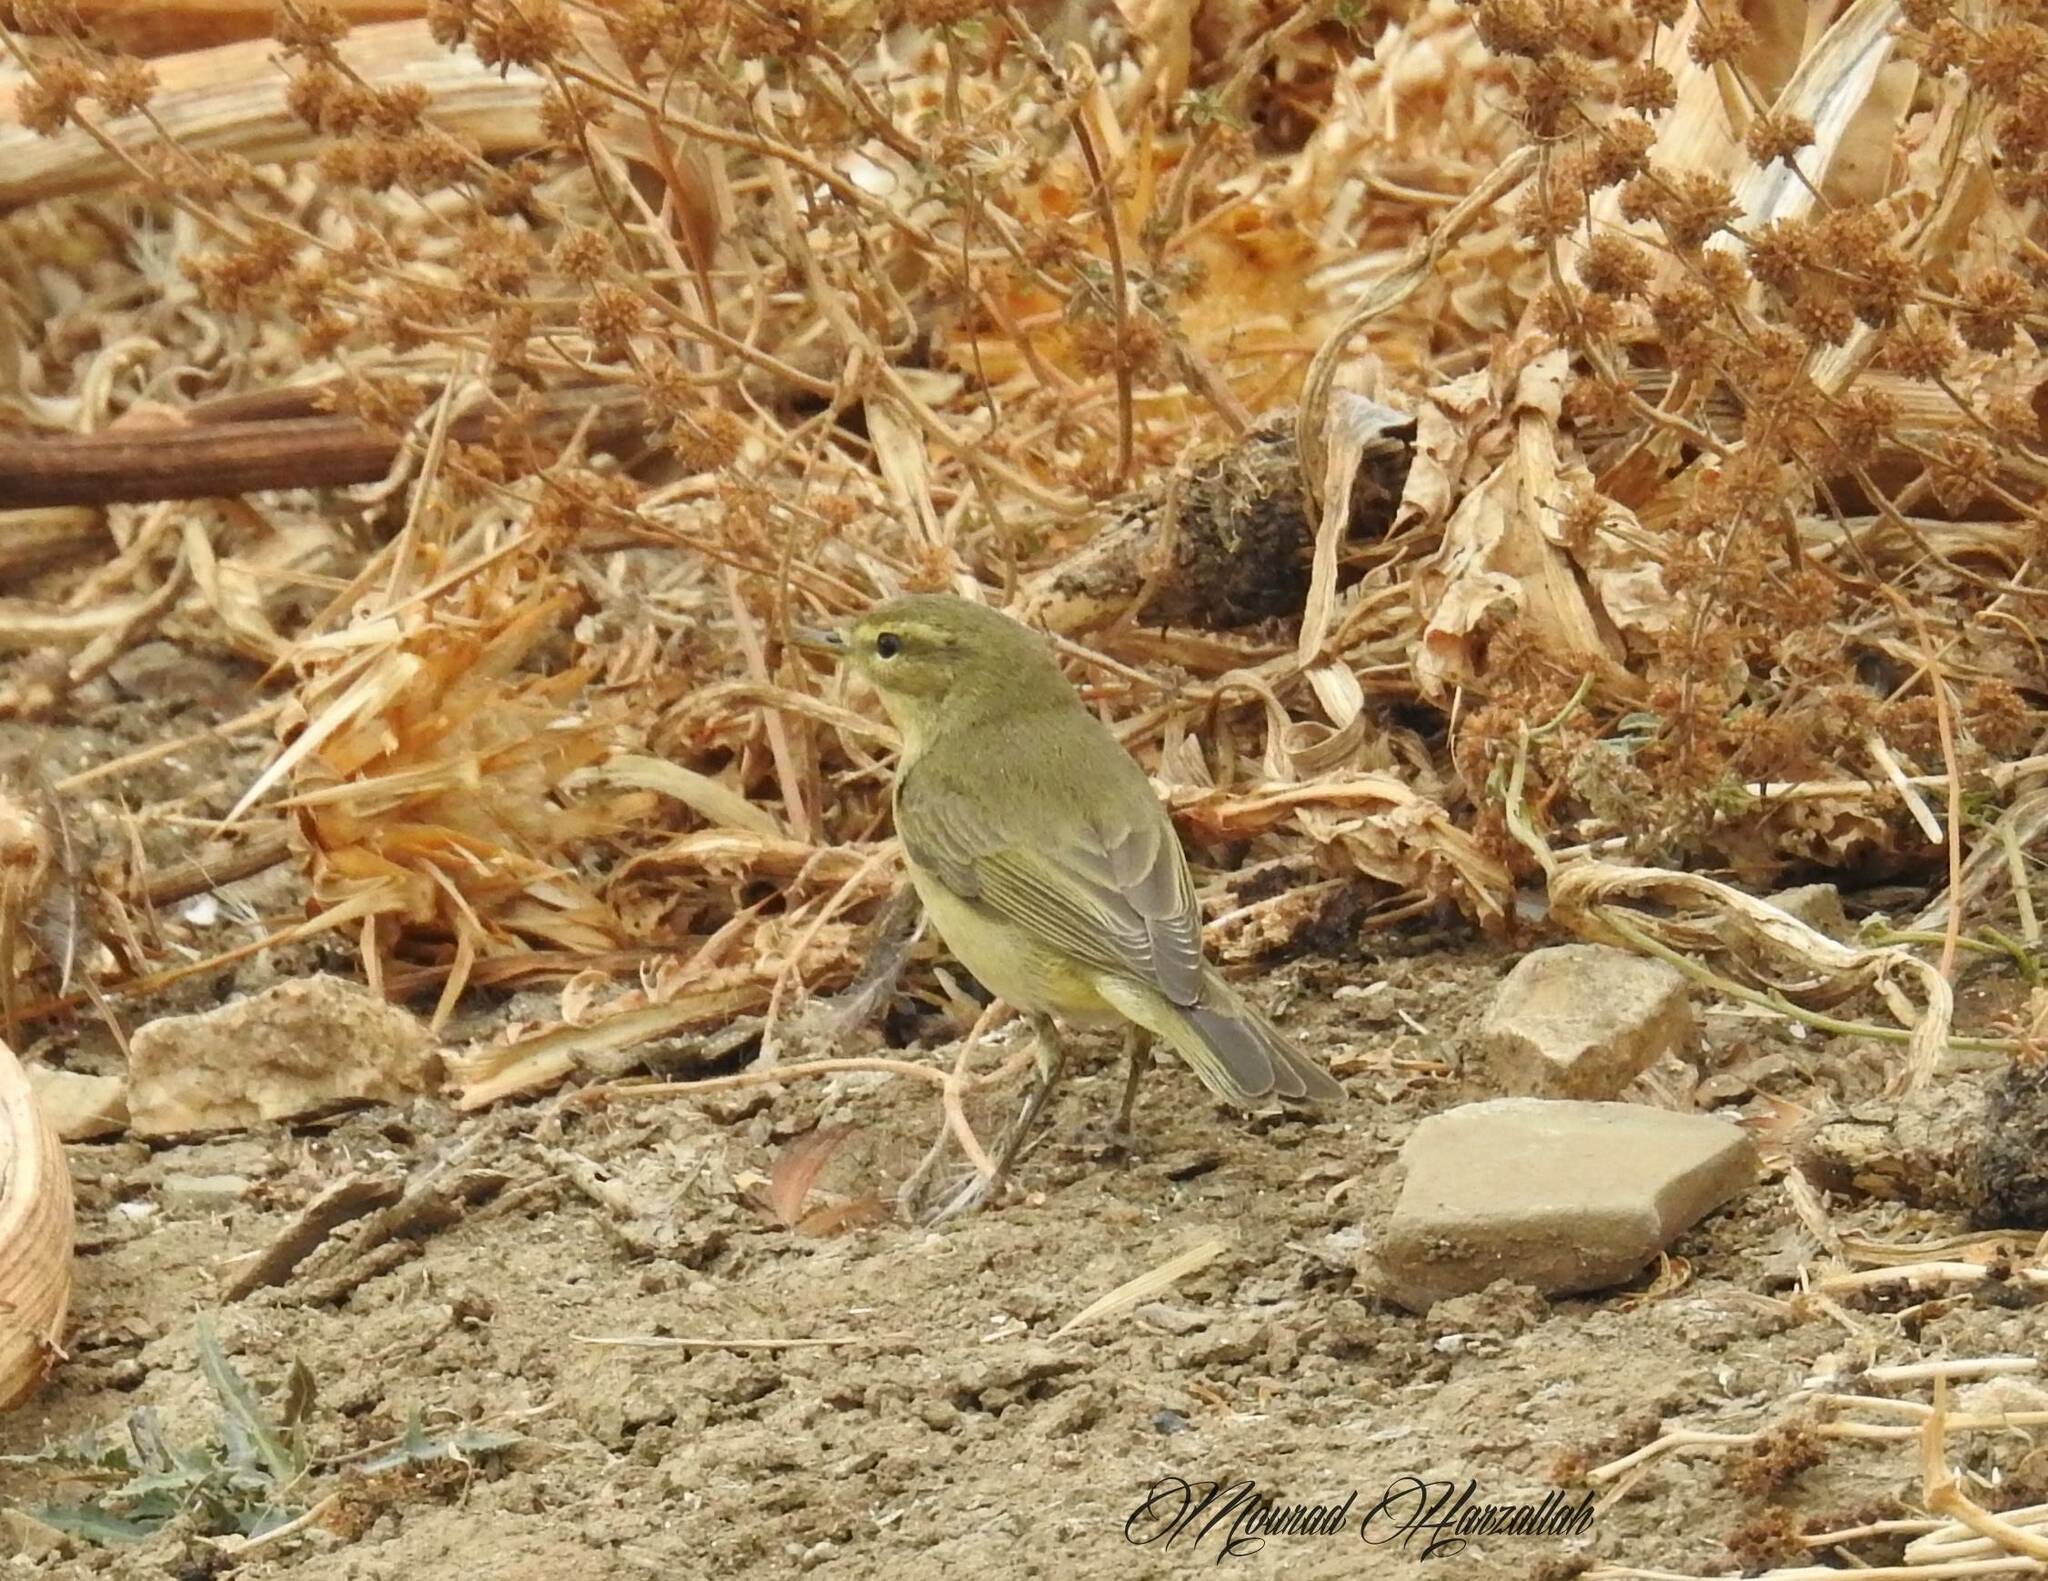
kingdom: Animalia
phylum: Chordata
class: Aves
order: Passeriformes
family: Phylloscopidae
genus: Phylloscopus
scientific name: Phylloscopus trochilus
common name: Willow warbler
